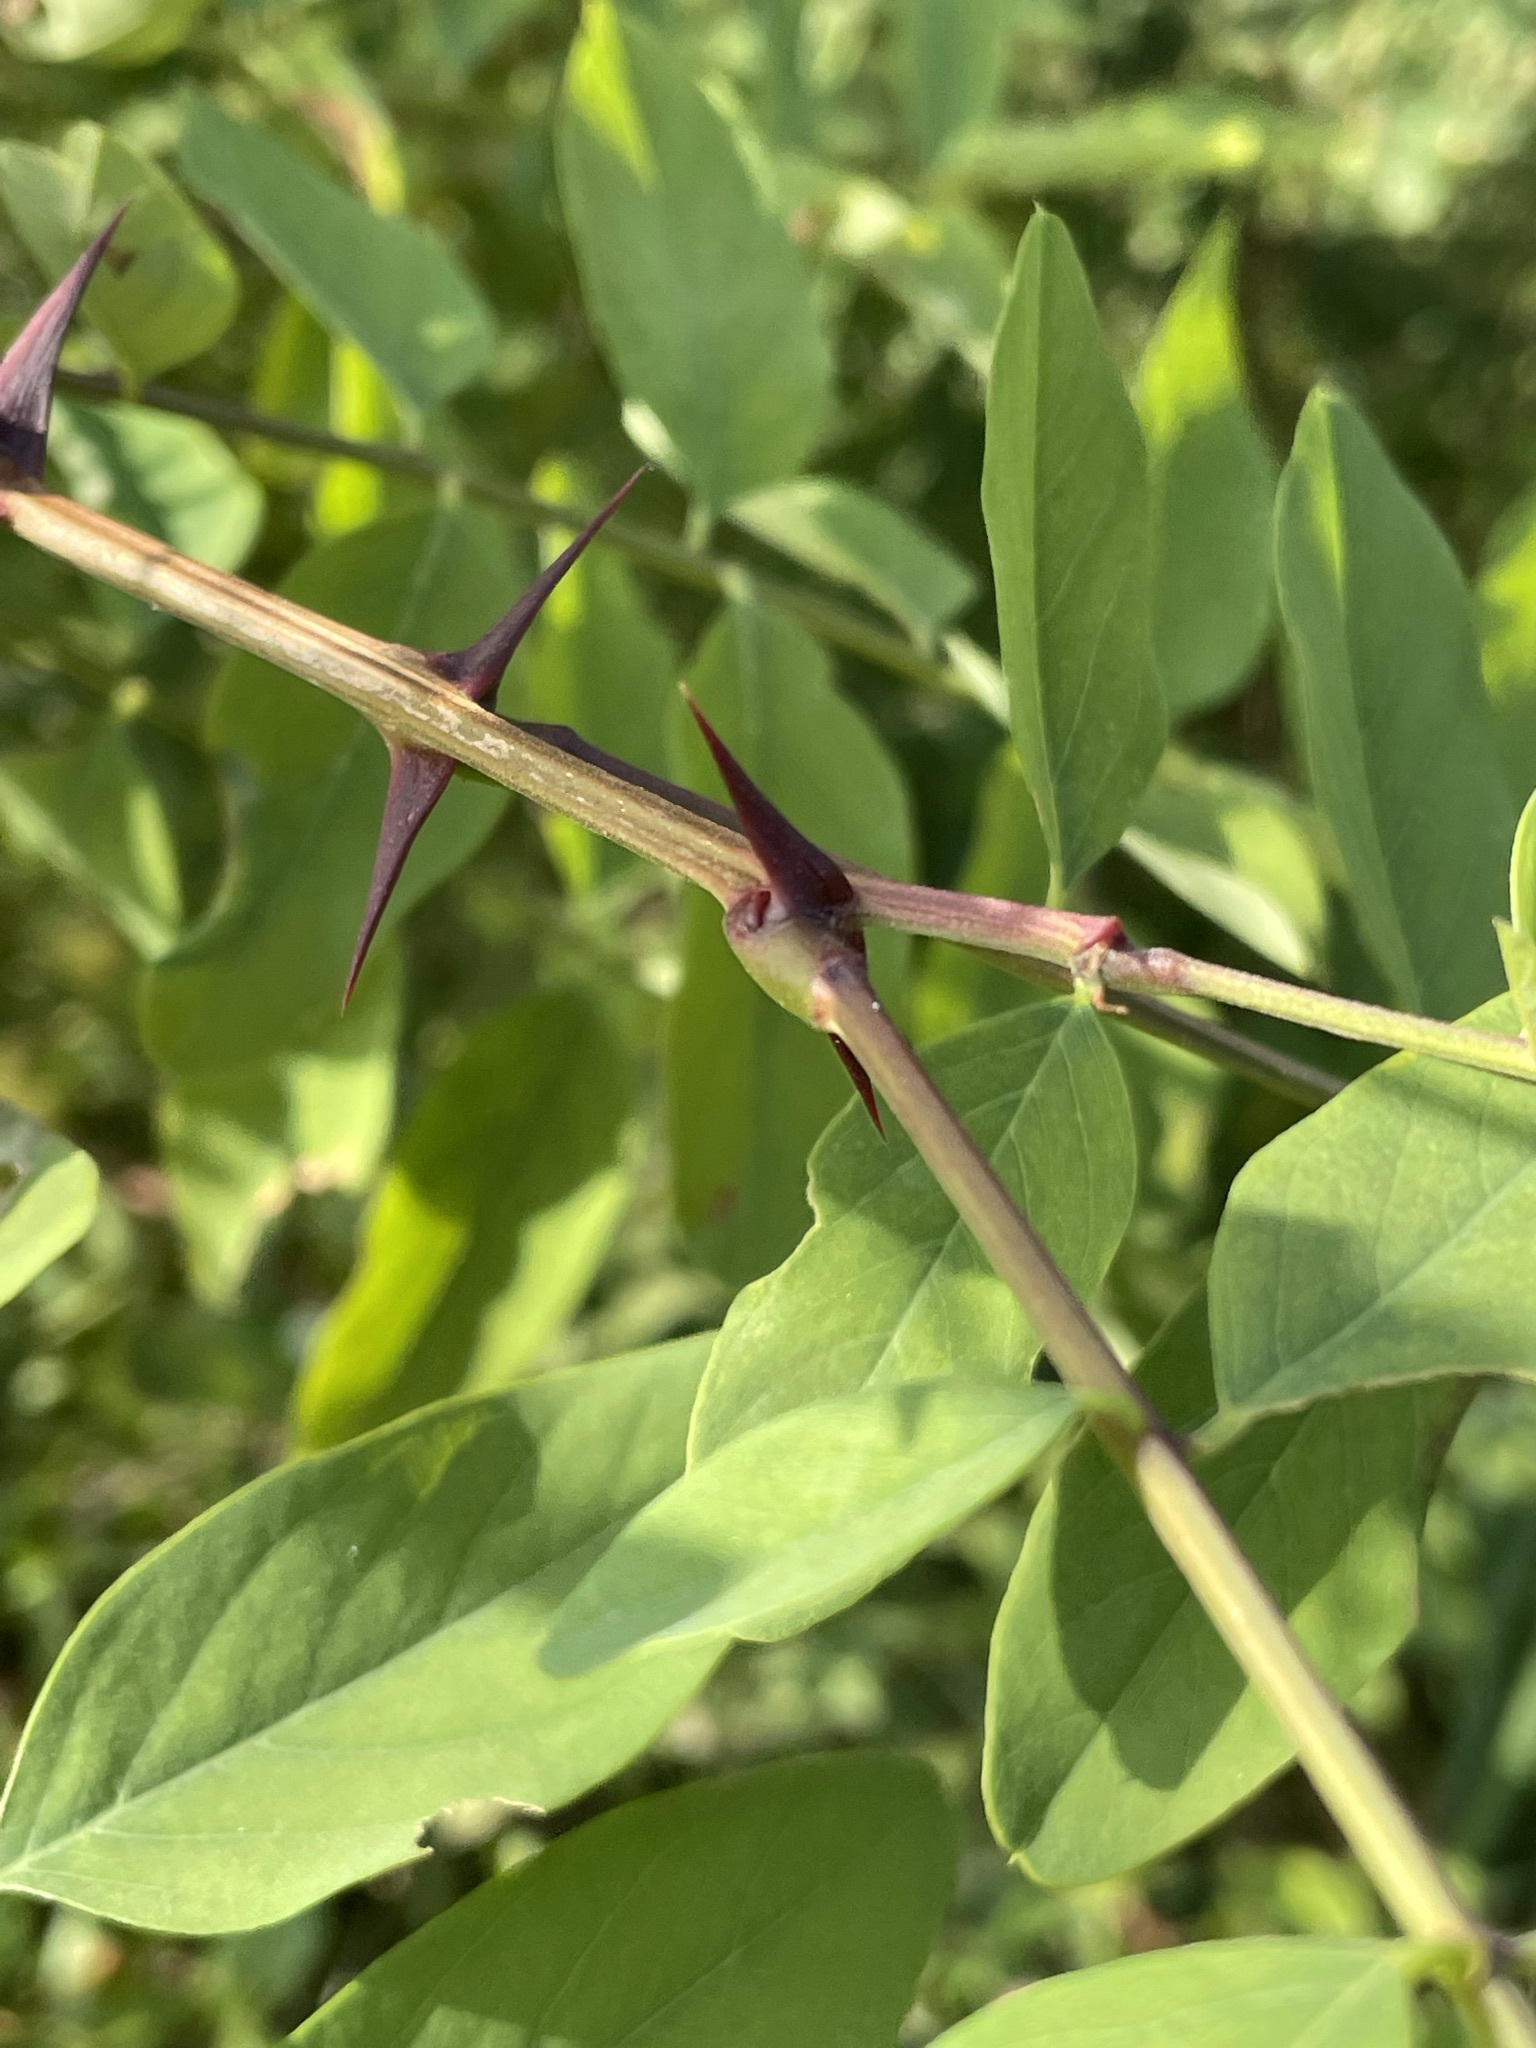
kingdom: Plantae
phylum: Tracheophyta
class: Magnoliopsida
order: Fabales
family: Fabaceae
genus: Robinia
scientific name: Robinia pseudoacacia
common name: Black locust
